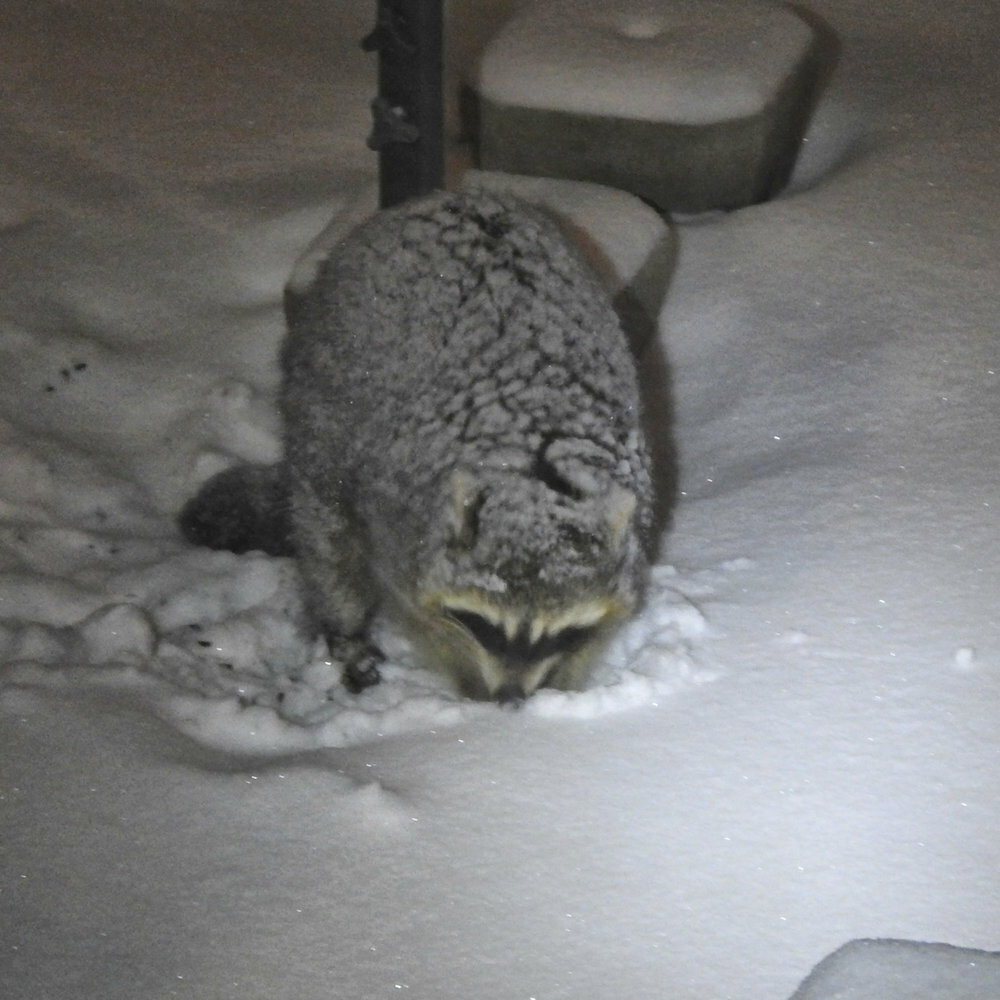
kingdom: Animalia
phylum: Chordata
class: Mammalia
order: Carnivora
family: Procyonidae
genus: Procyon
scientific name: Procyon lotor
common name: Raccoon
